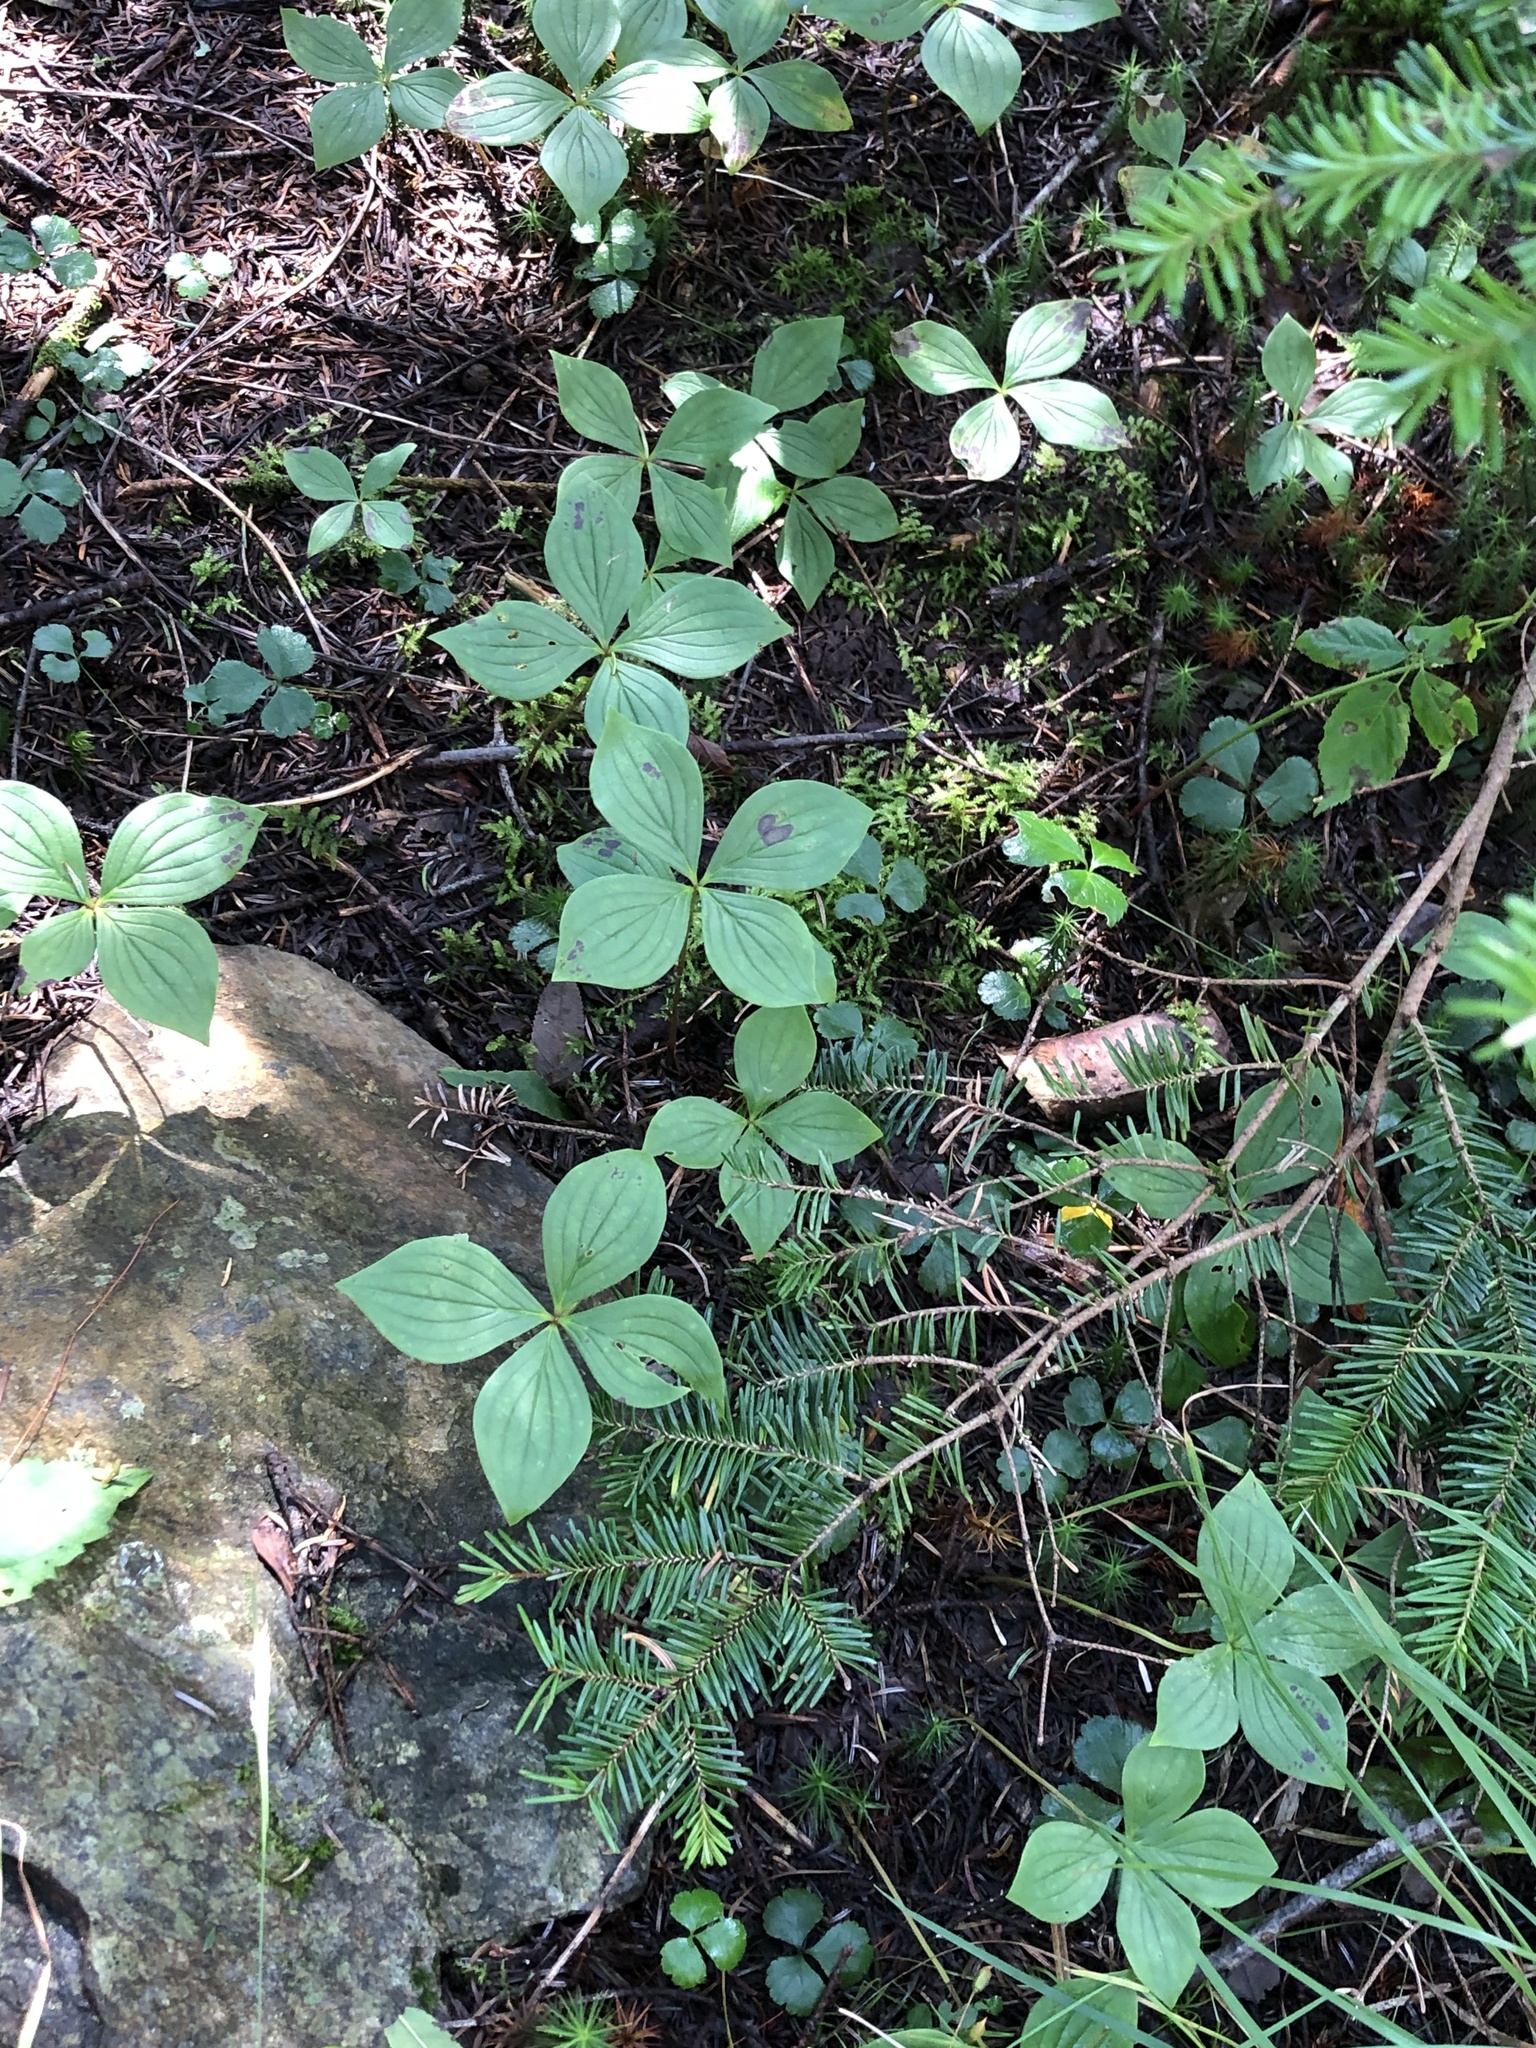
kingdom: Plantae
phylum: Tracheophyta
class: Magnoliopsida
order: Cornales
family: Cornaceae
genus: Cornus
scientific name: Cornus canadensis
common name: Creeping dogwood
